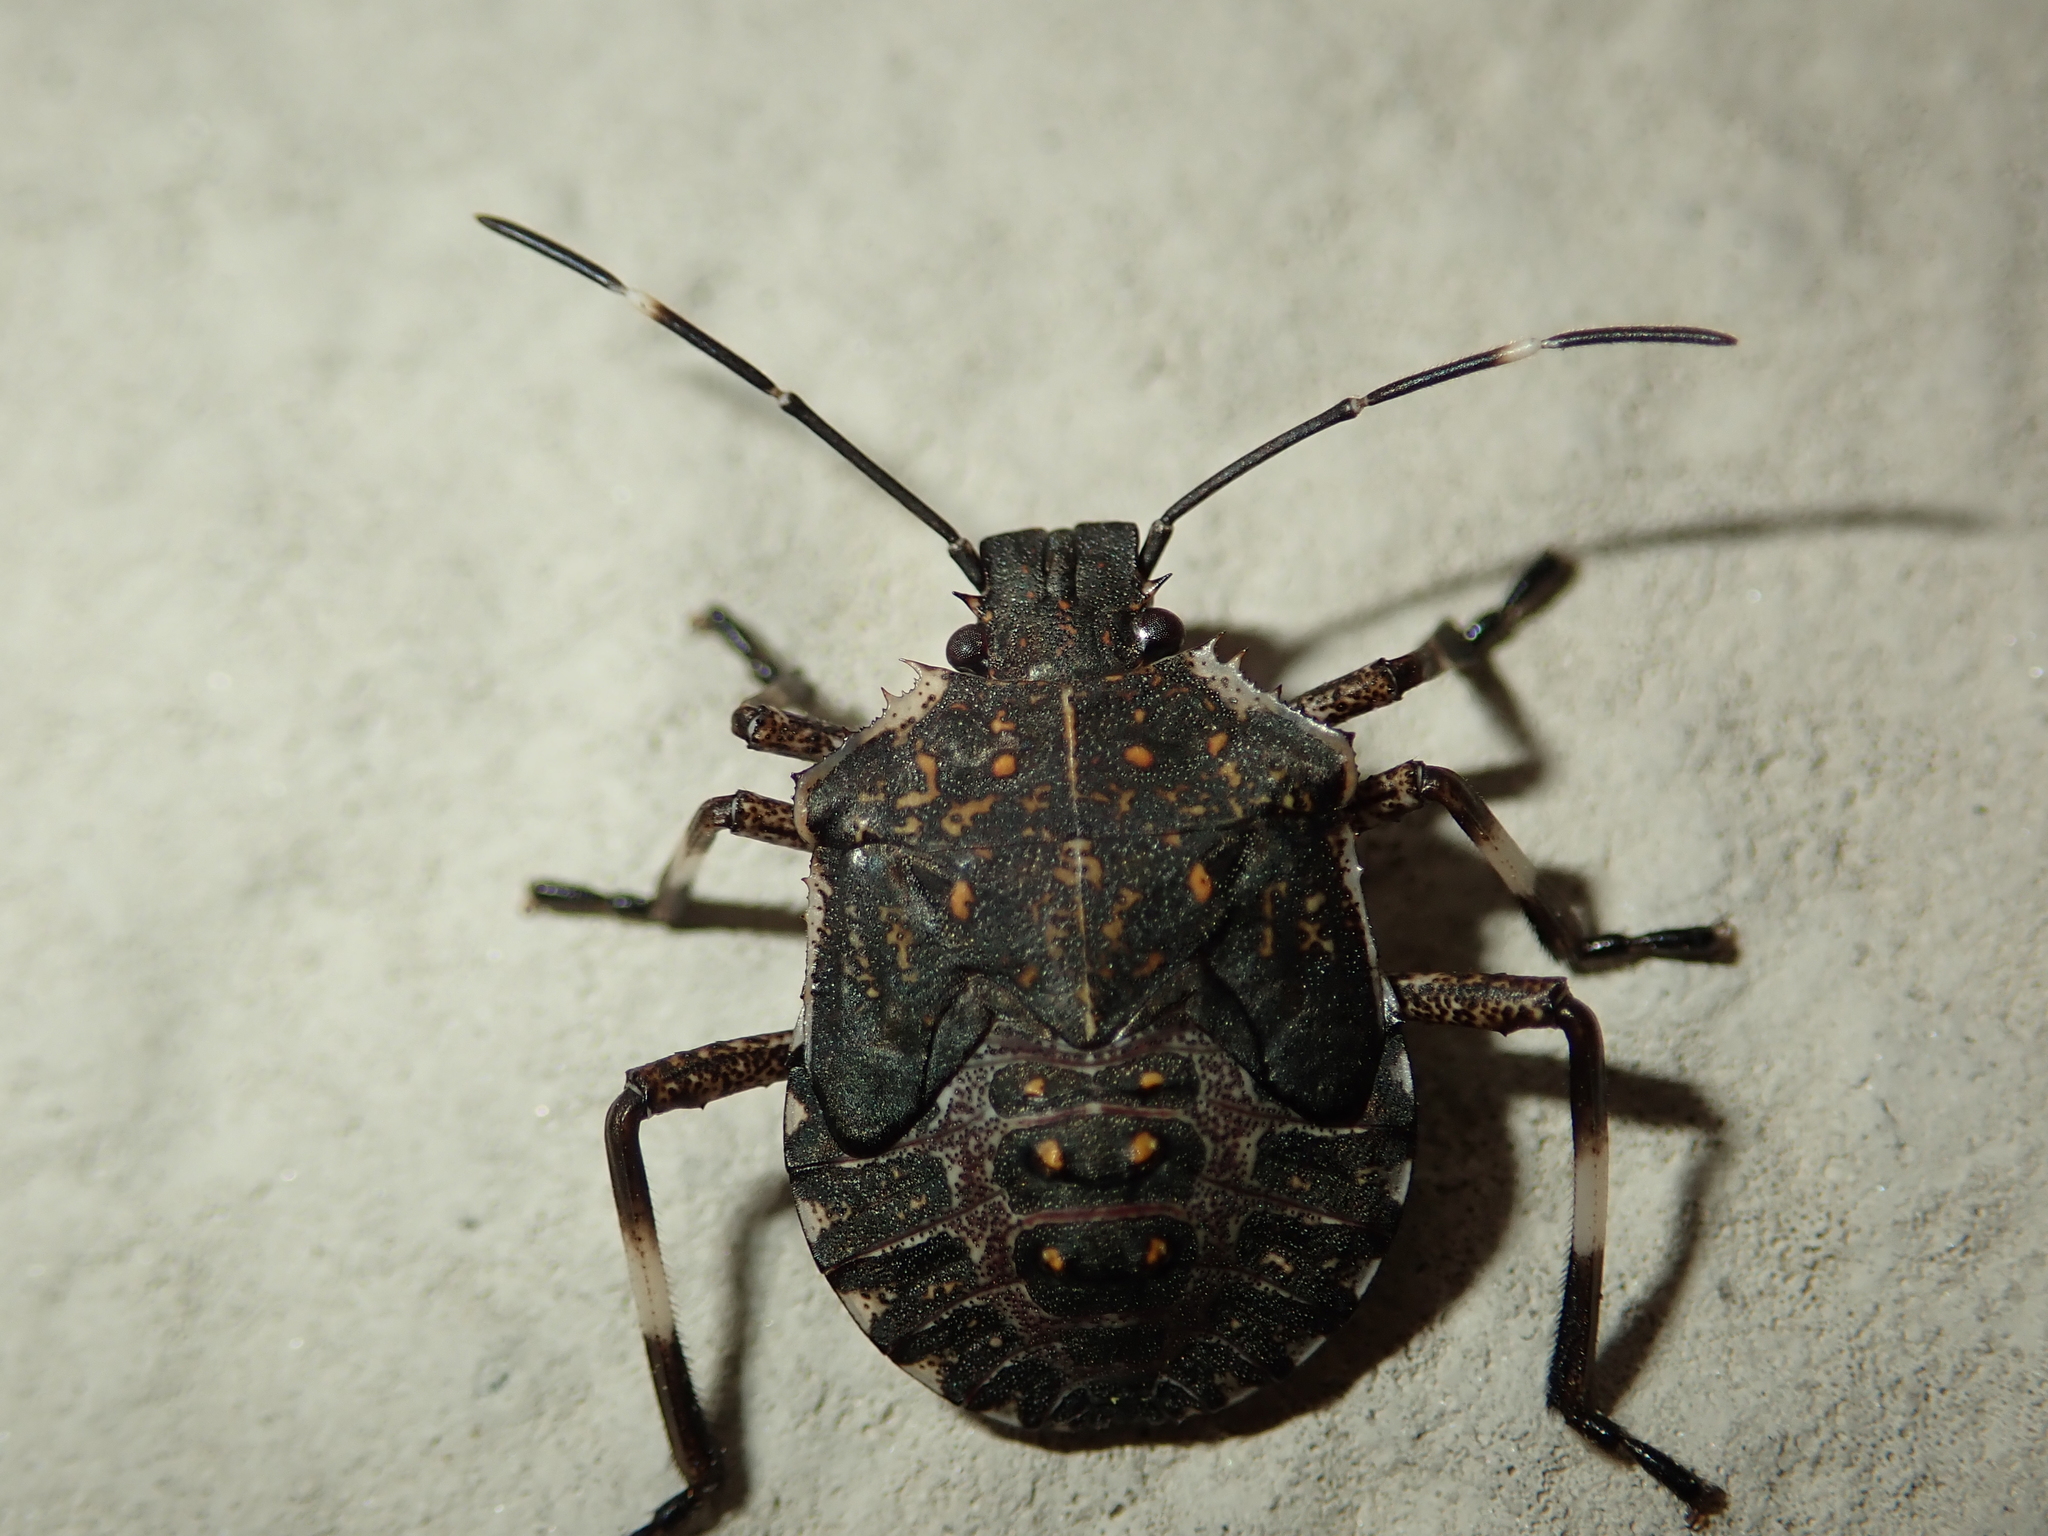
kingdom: Animalia
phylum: Arthropoda
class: Insecta
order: Hemiptera
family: Pentatomidae
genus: Halyomorpha
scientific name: Halyomorpha halys
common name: Brown marmorated stink bug
